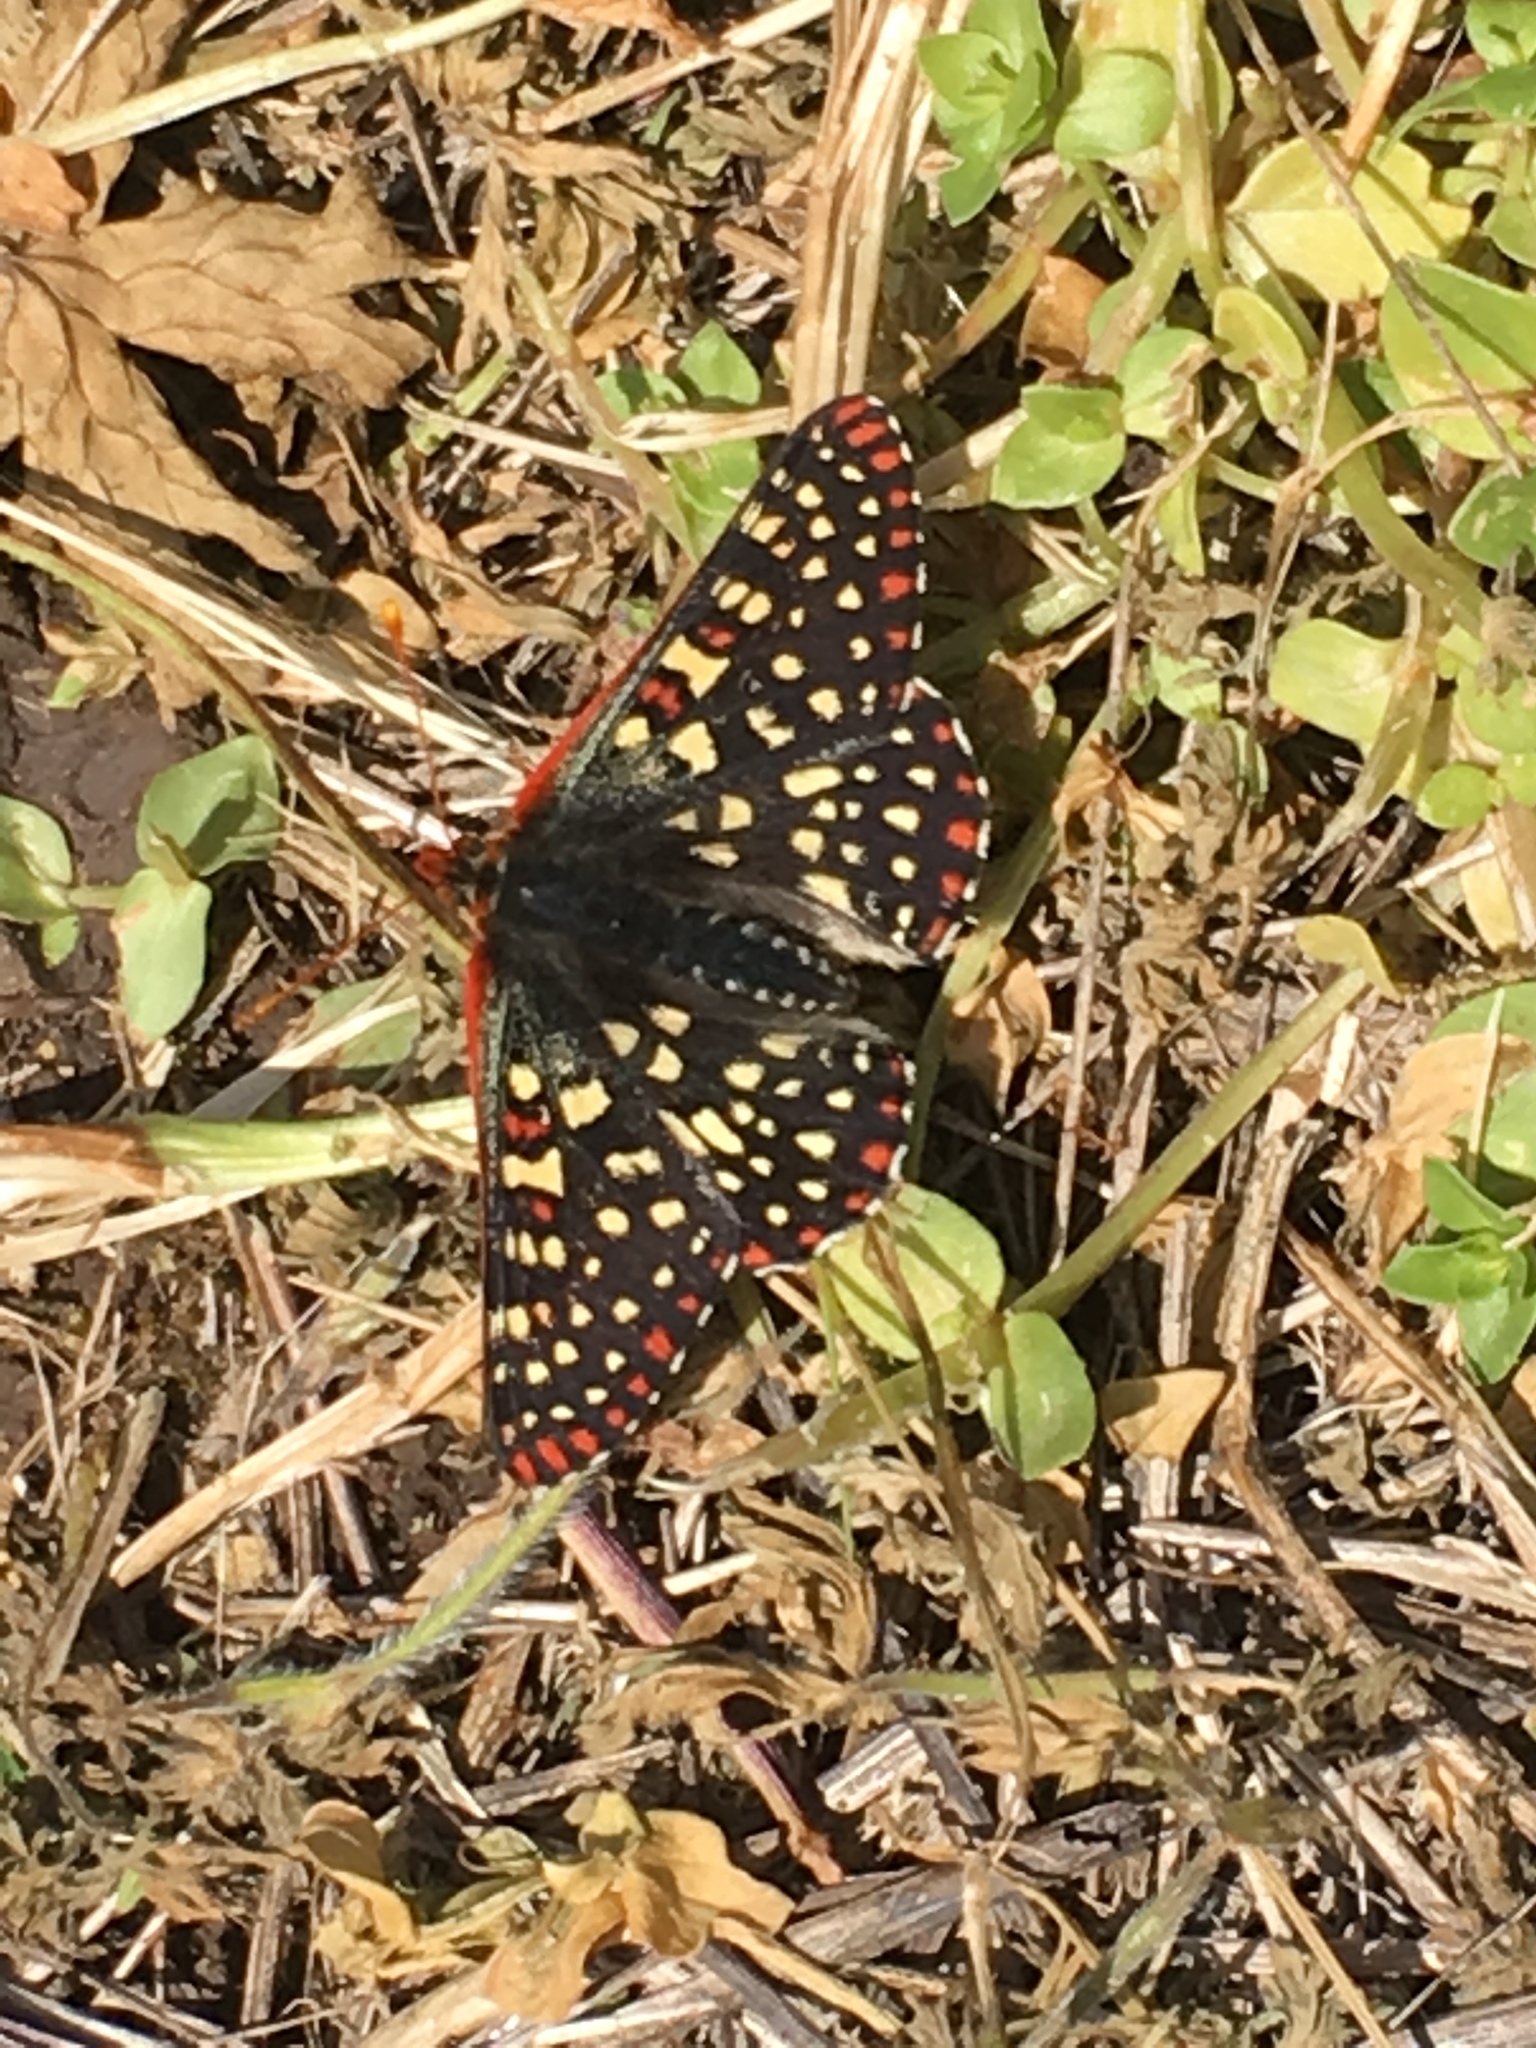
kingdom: Animalia
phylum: Arthropoda
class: Insecta
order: Lepidoptera
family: Nymphalidae
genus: Occidryas
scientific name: Occidryas chalcedona
